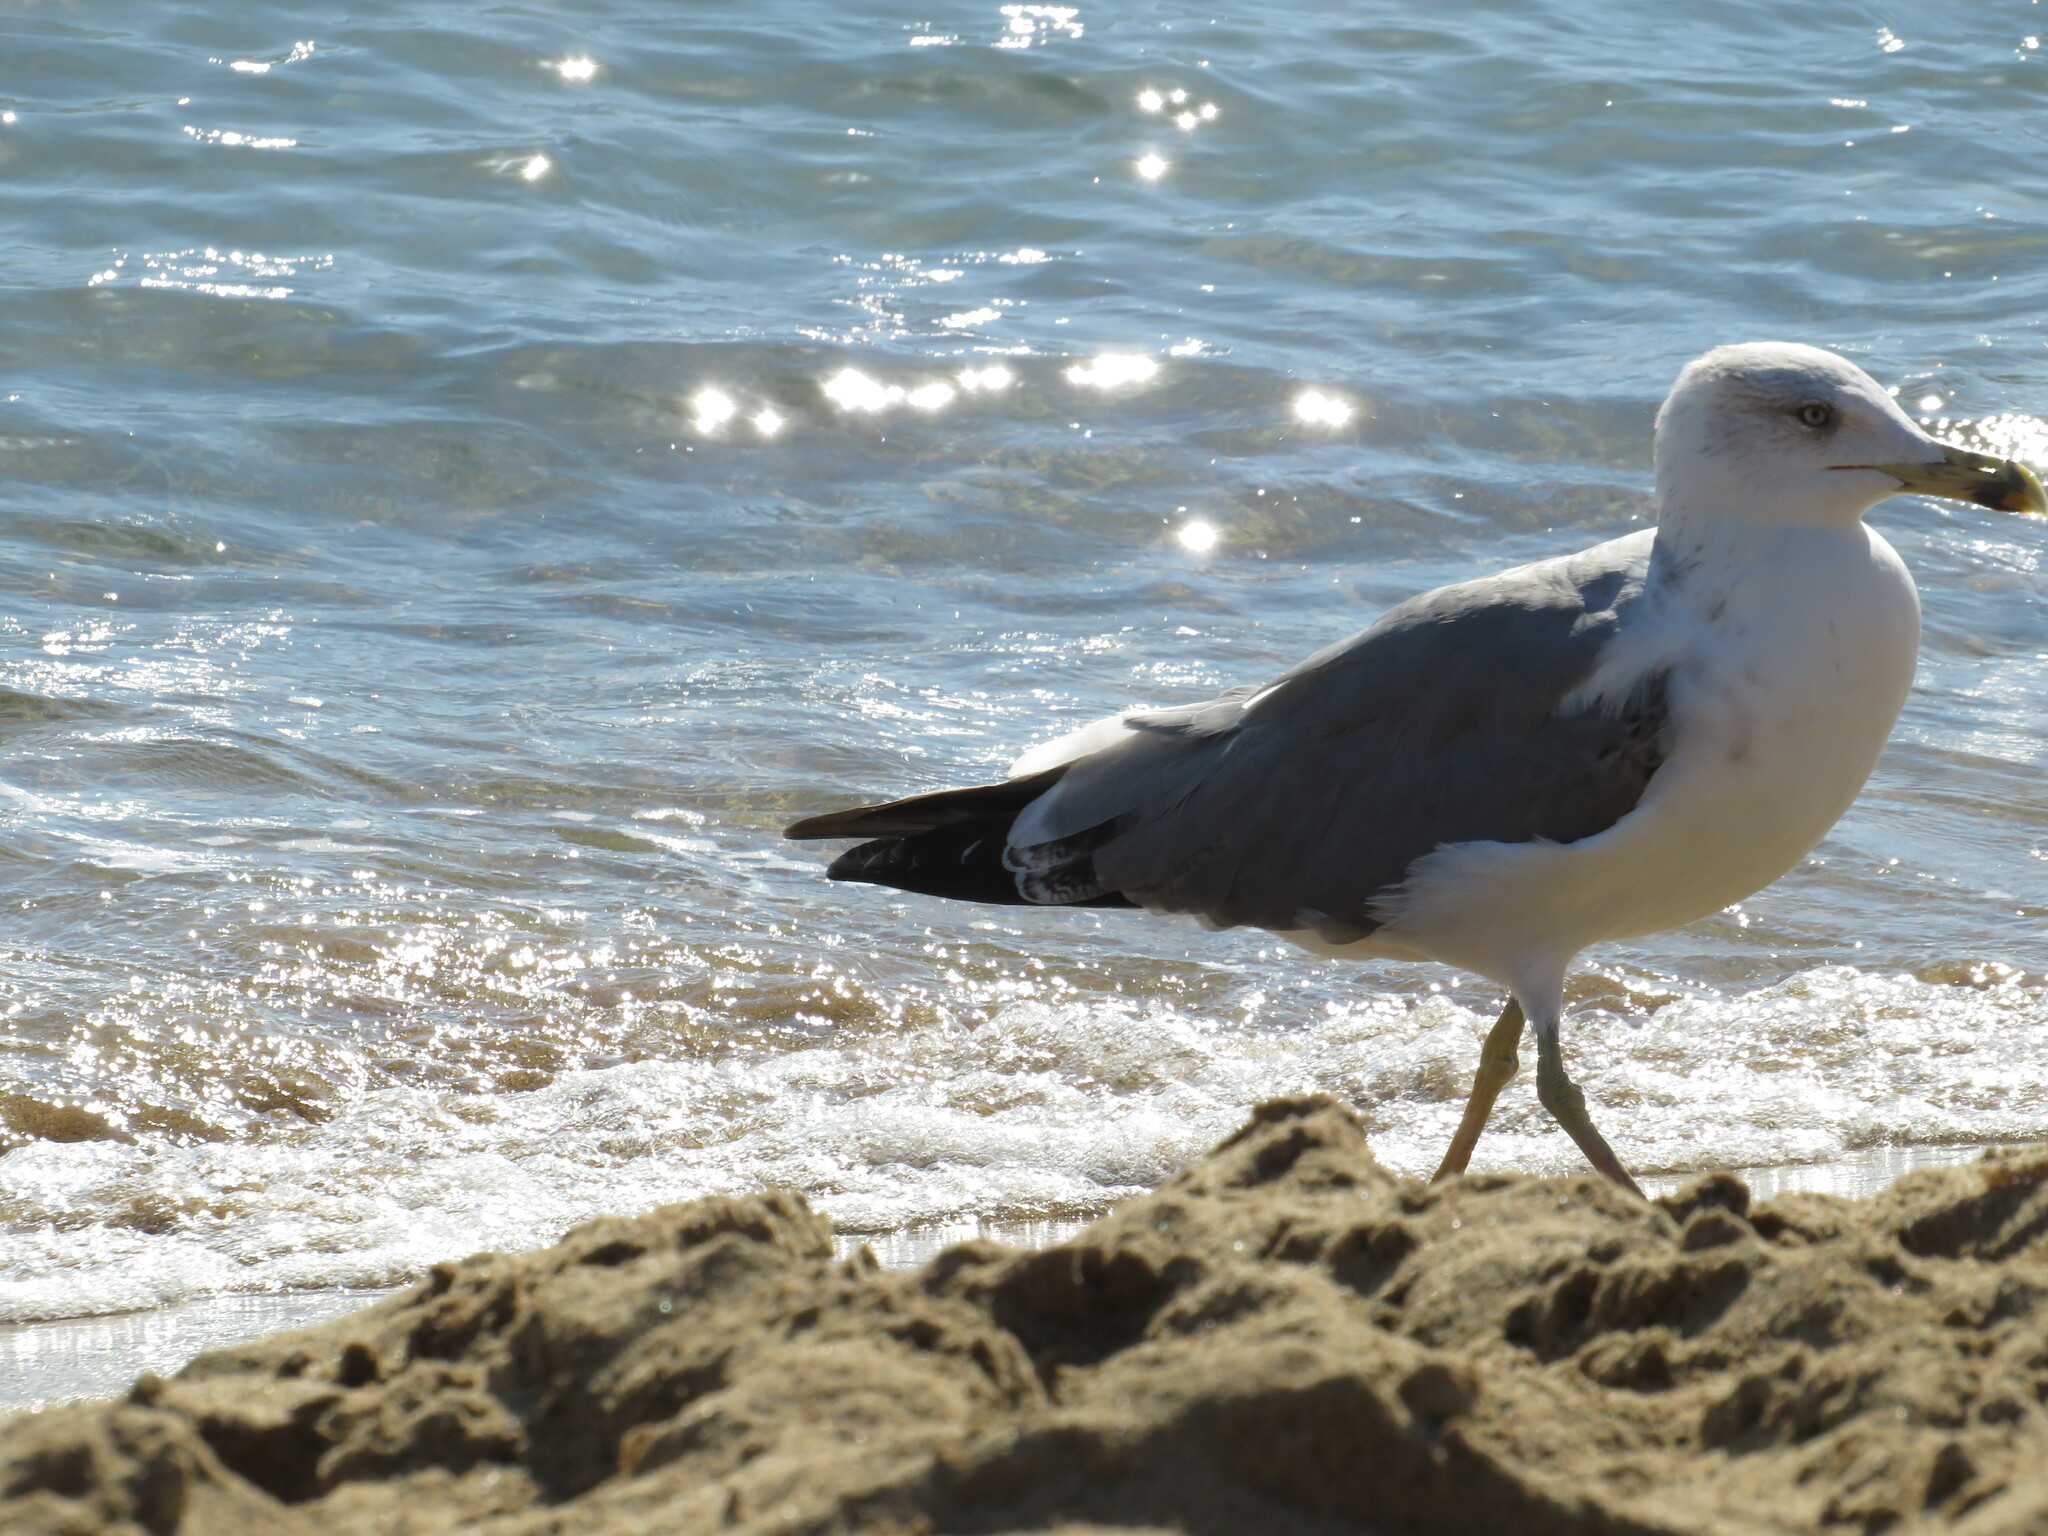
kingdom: Animalia
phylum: Chordata
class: Aves
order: Charadriiformes
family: Laridae
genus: Larus
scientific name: Larus michahellis
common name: Yellow-legged gull
